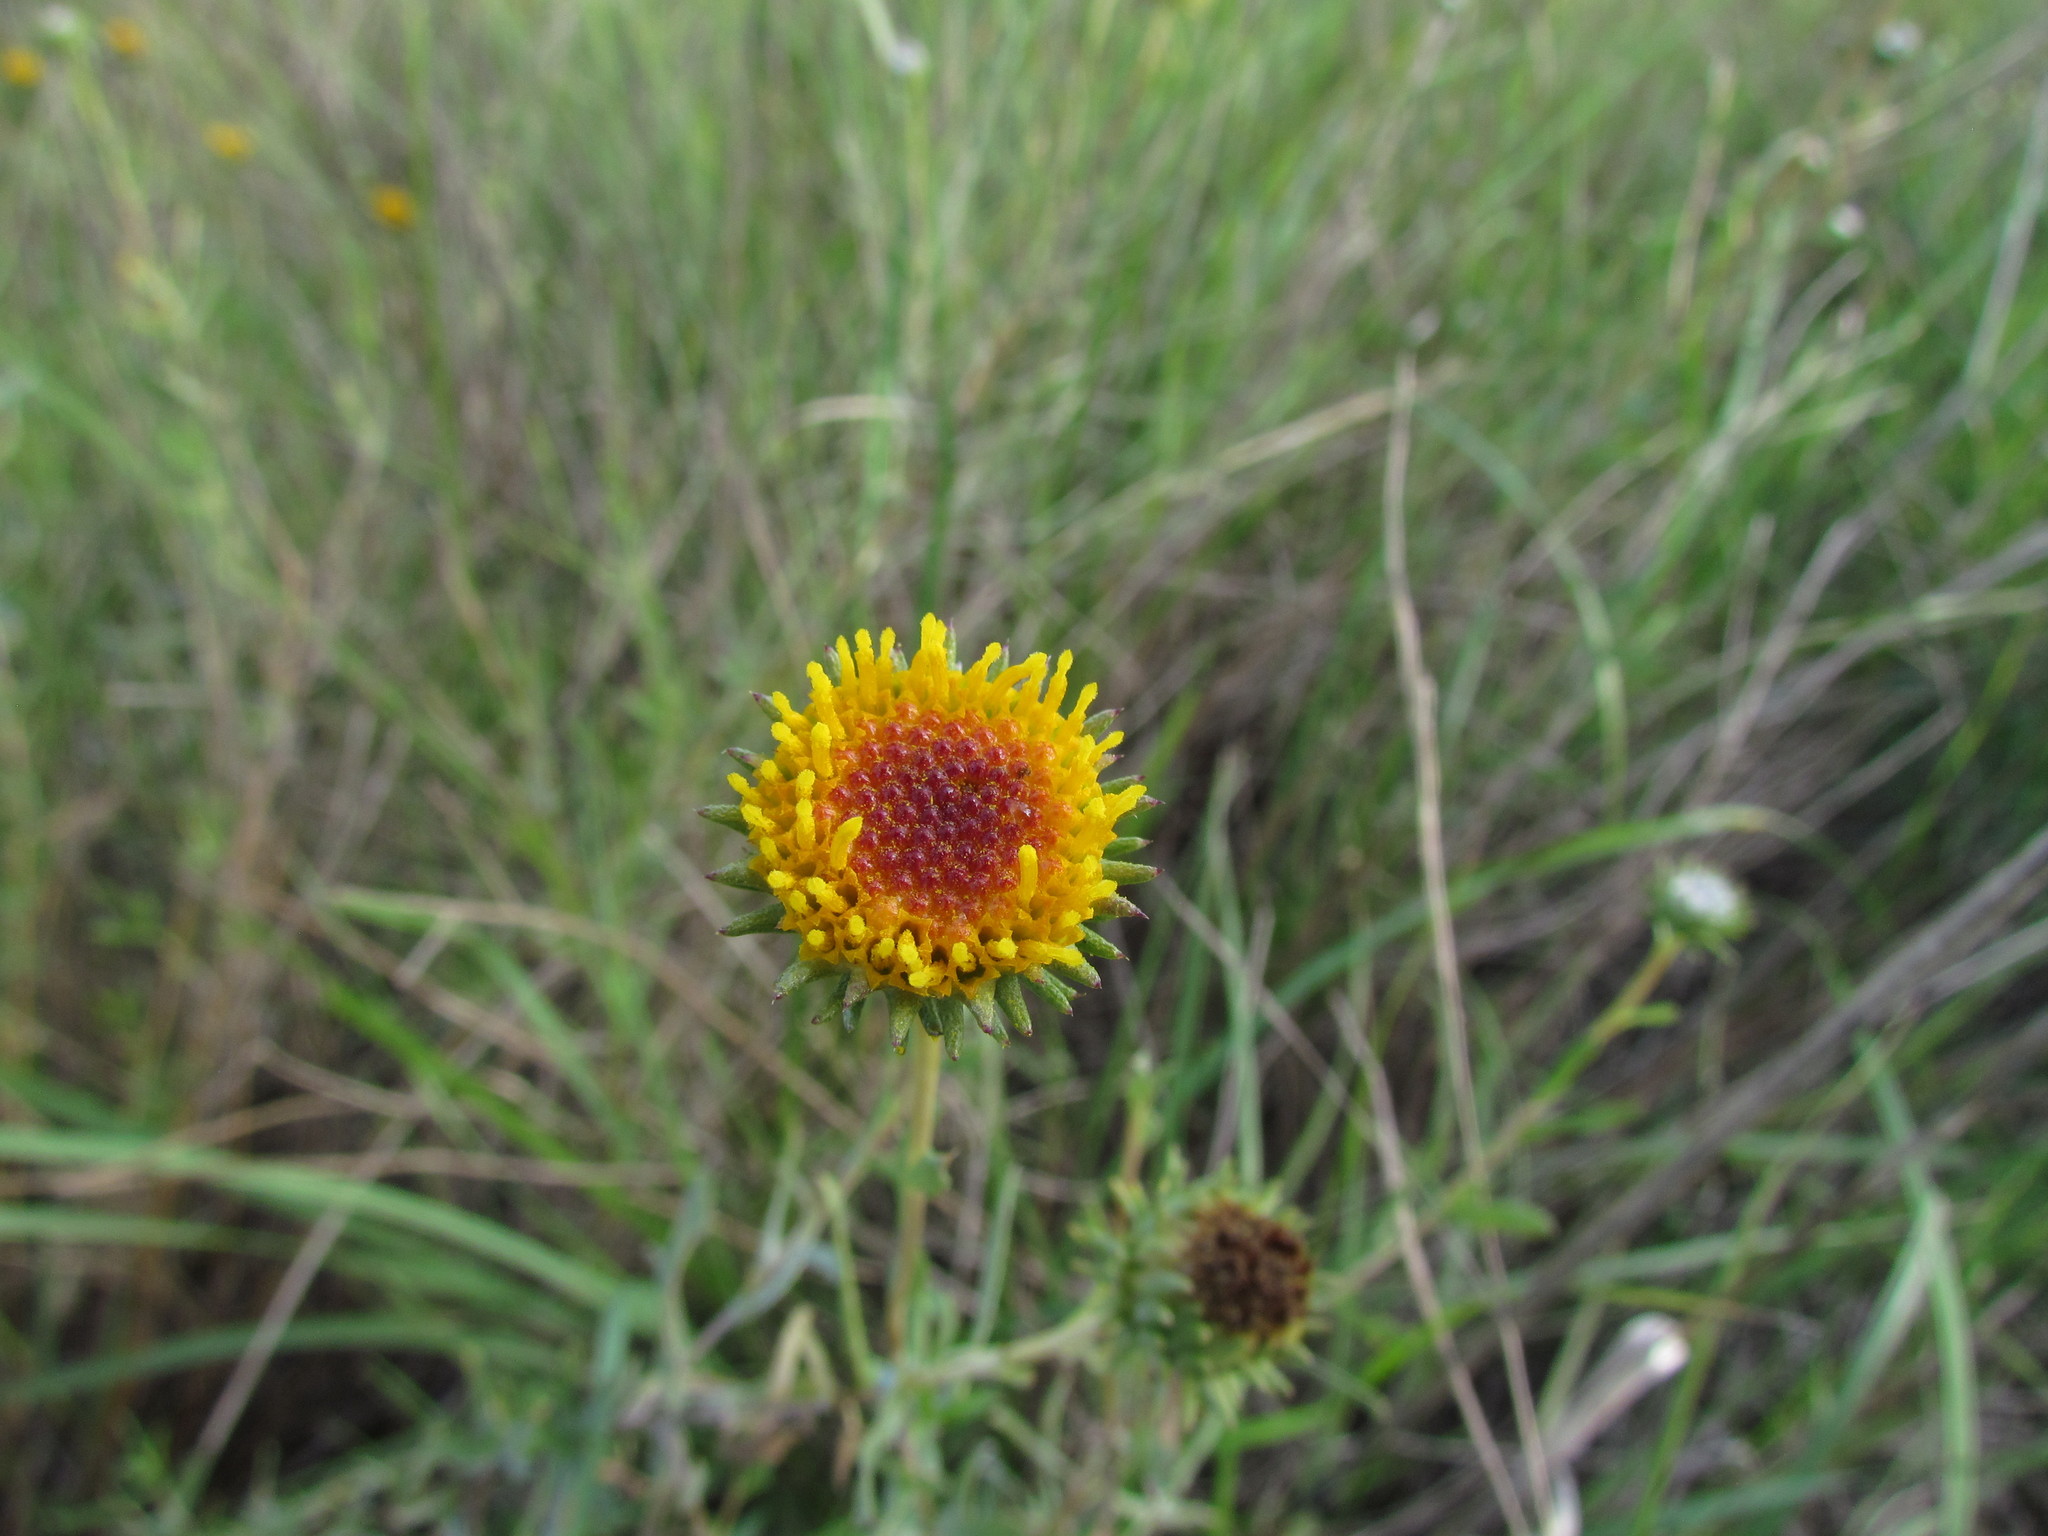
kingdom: Plantae
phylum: Tracheophyta
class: Magnoliopsida
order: Asterales
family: Asteraceae
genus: Grindelia
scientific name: Grindelia pulchella
